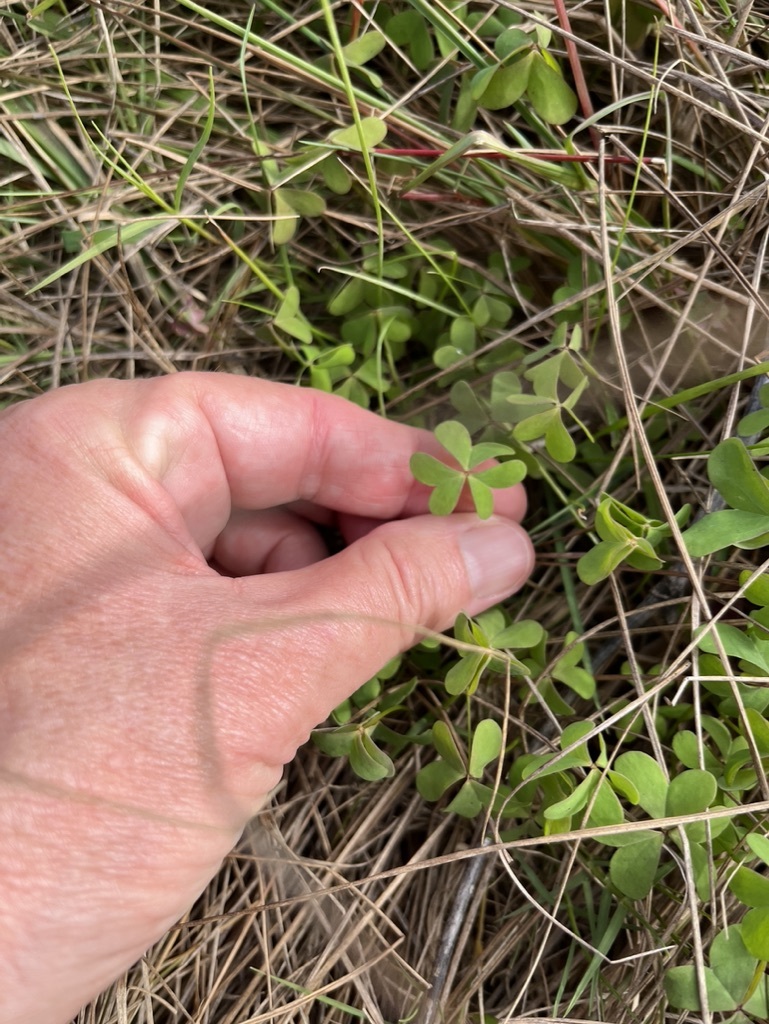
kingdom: Plantae
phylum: Tracheophyta
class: Magnoliopsida
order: Oxalidales
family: Oxalidaceae
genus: Oxalis
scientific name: Oxalis caprina
